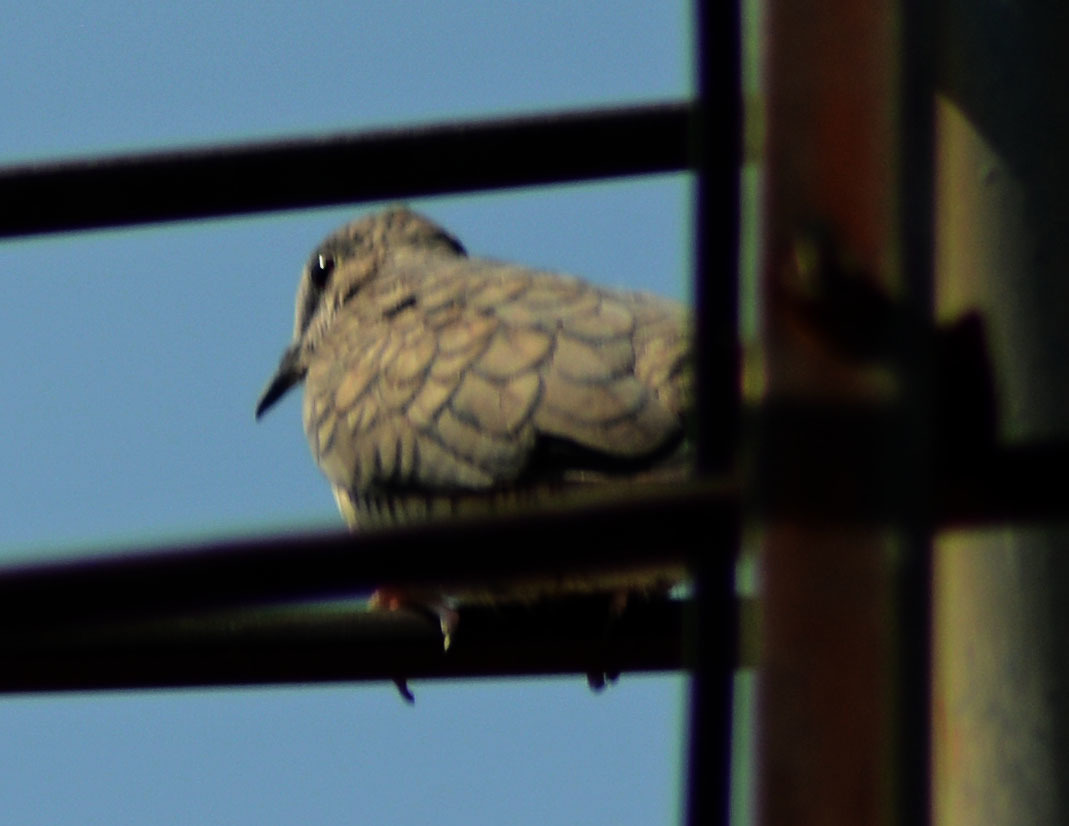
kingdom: Animalia
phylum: Chordata
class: Aves
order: Columbiformes
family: Columbidae
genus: Columbina
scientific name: Columbina inca
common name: Inca dove
